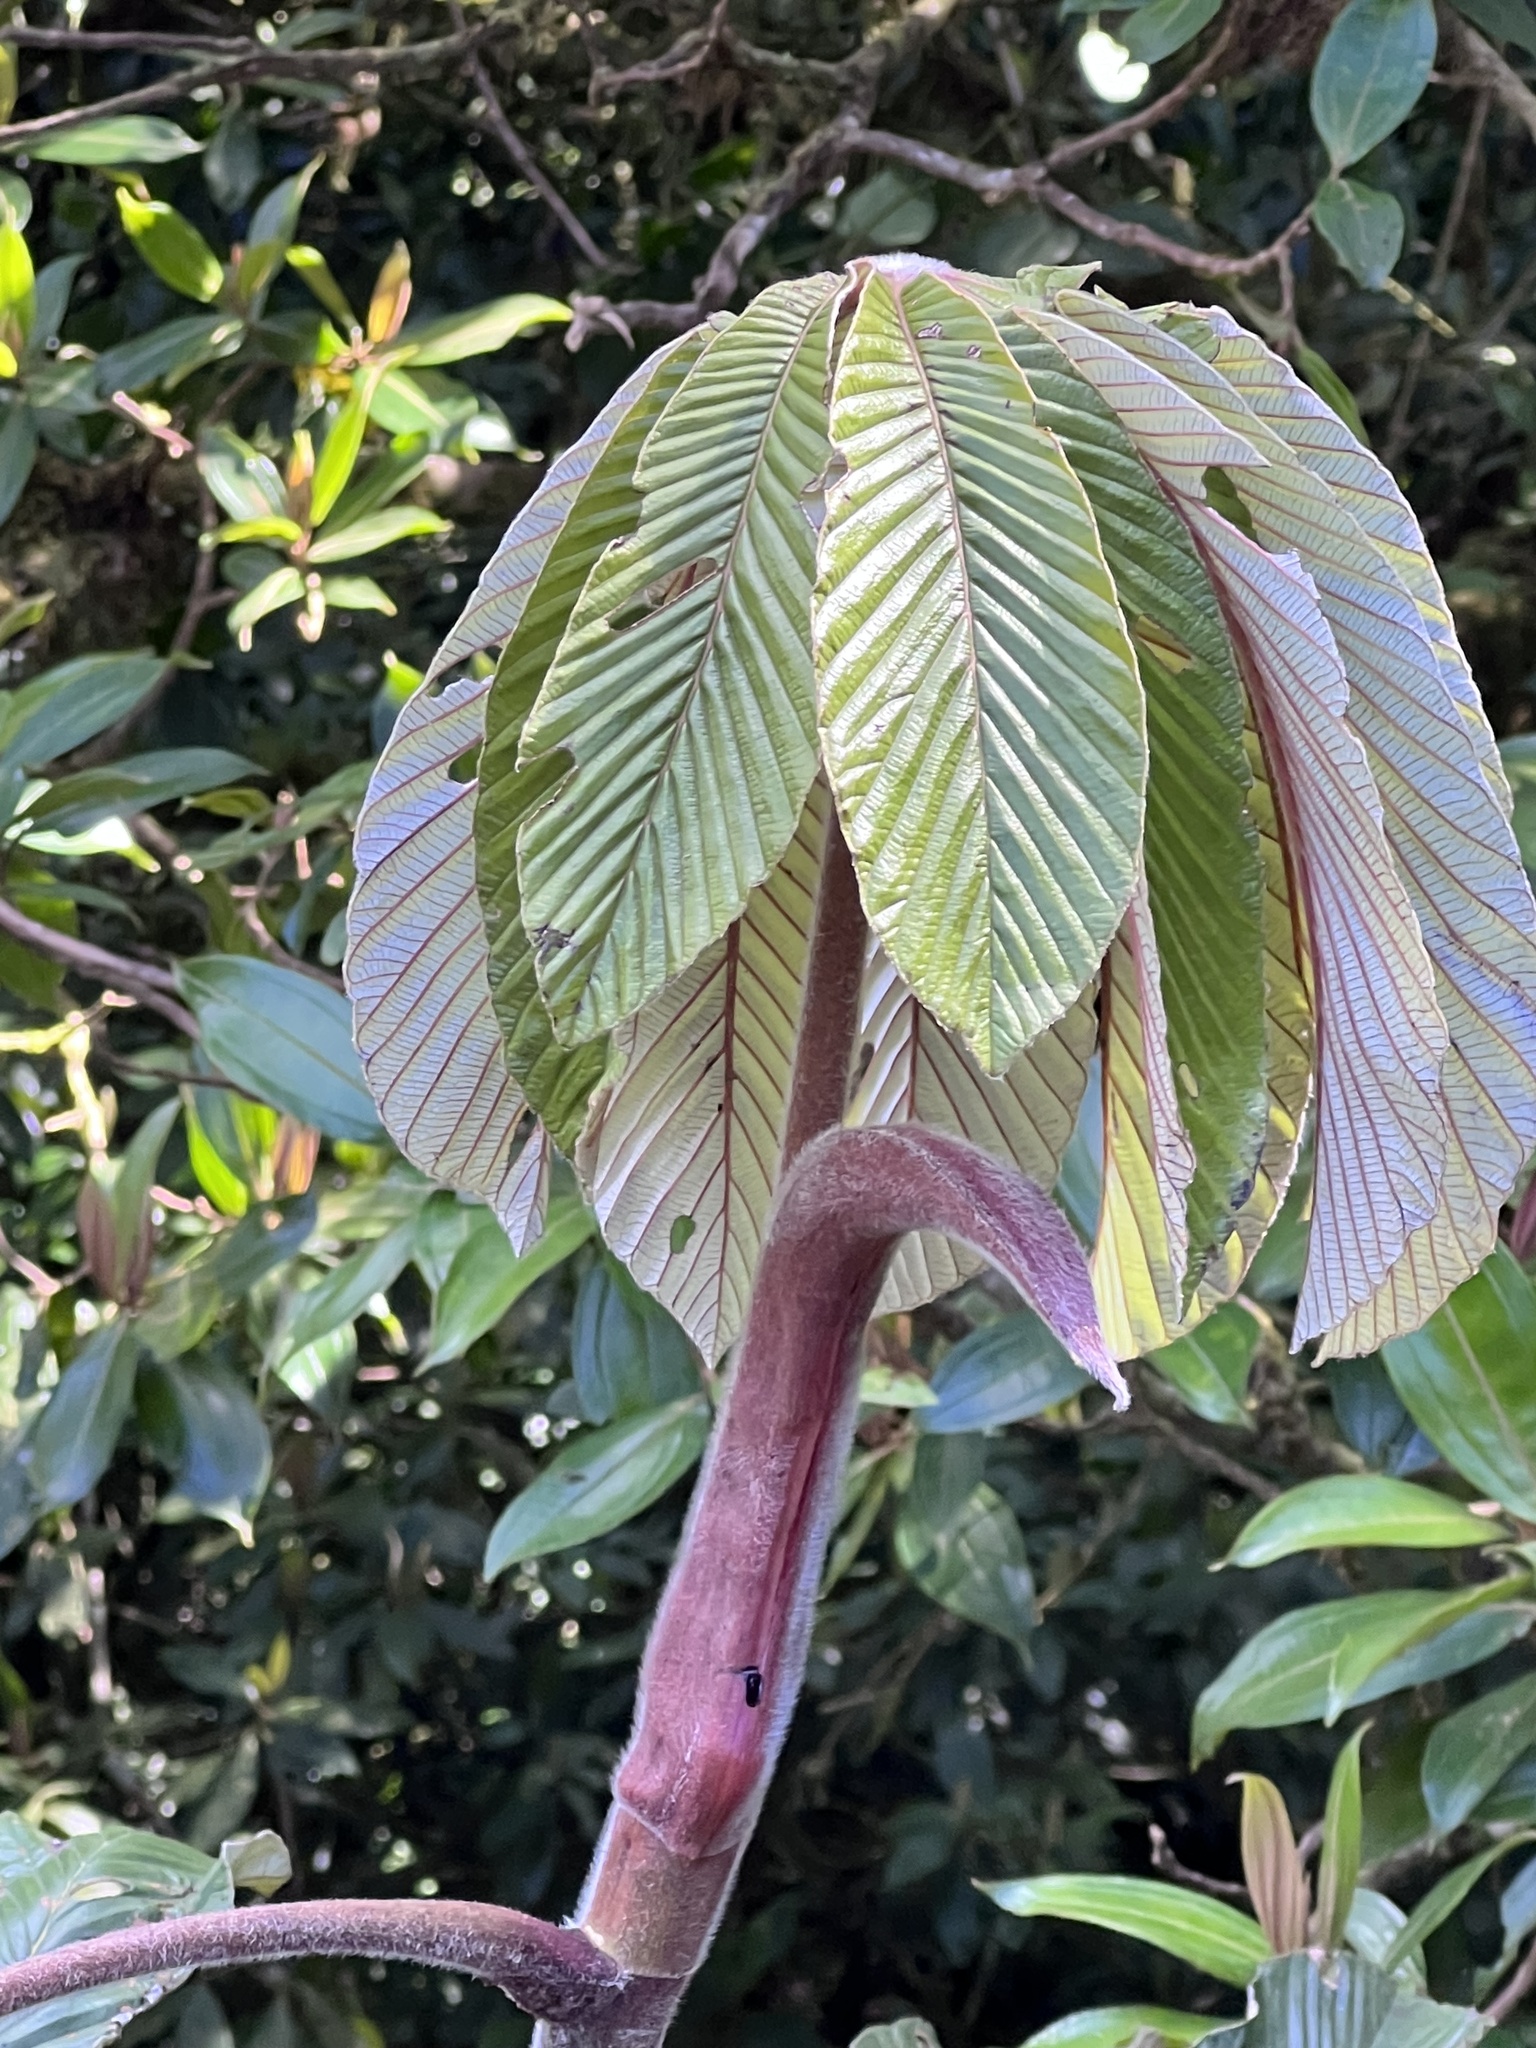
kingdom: Plantae
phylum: Tracheophyta
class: Magnoliopsida
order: Rosales
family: Urticaceae
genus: Cecropia
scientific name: Cecropia angustifolia
